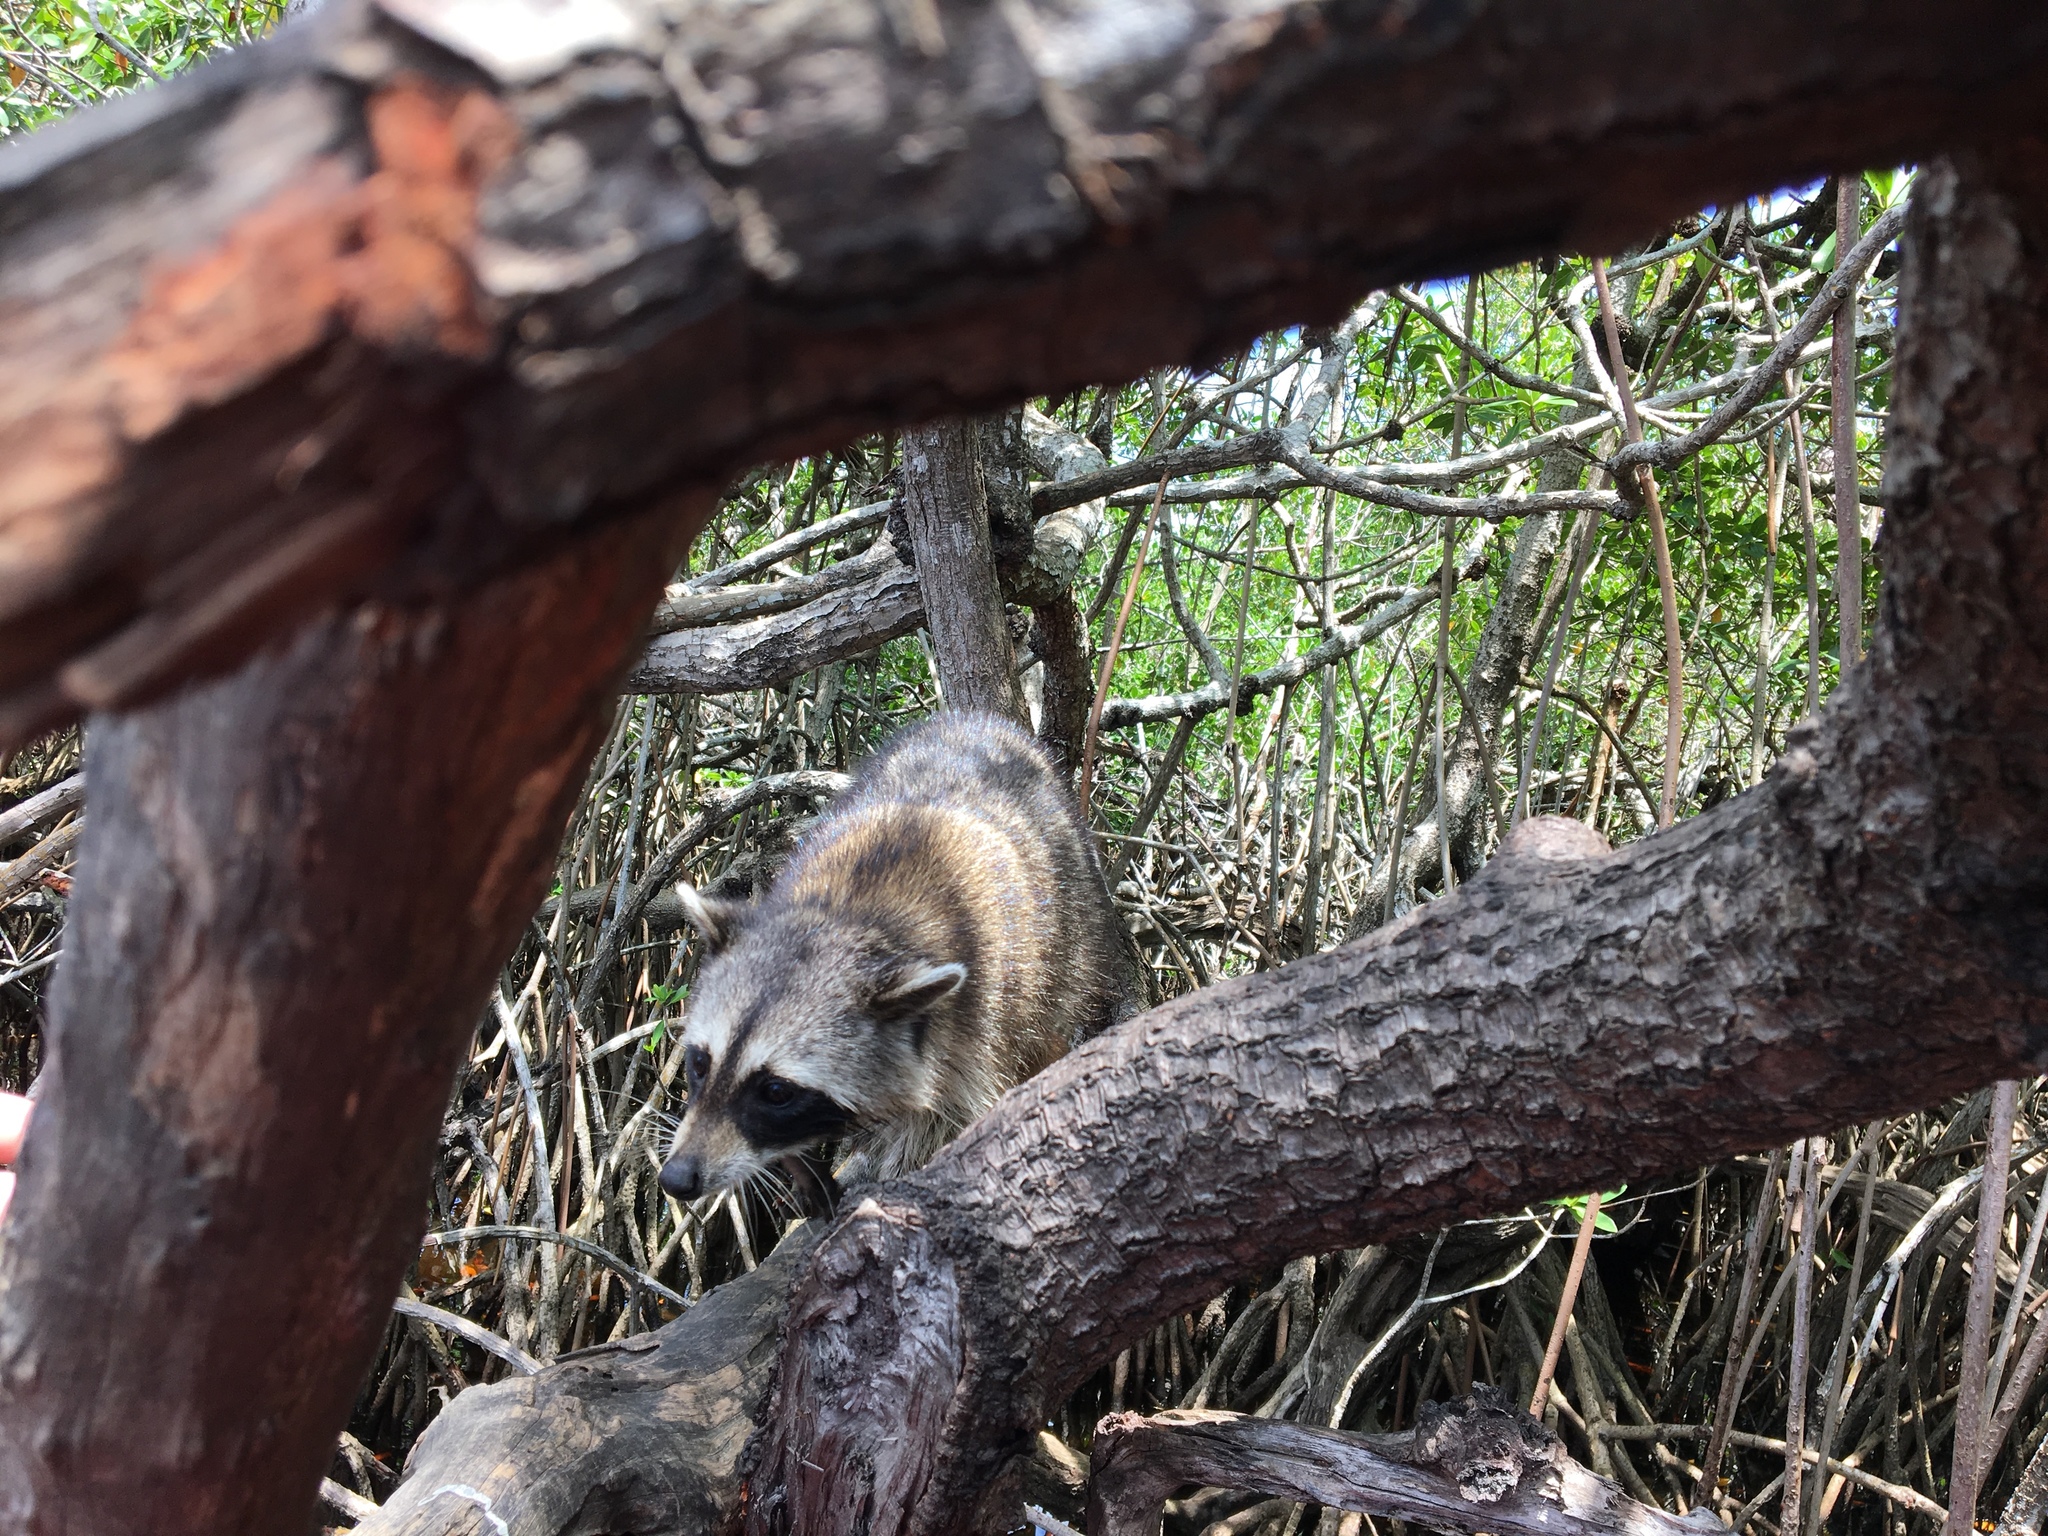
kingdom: Animalia
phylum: Chordata
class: Mammalia
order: Carnivora
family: Procyonidae
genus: Procyon
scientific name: Procyon lotor
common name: Raccoon
